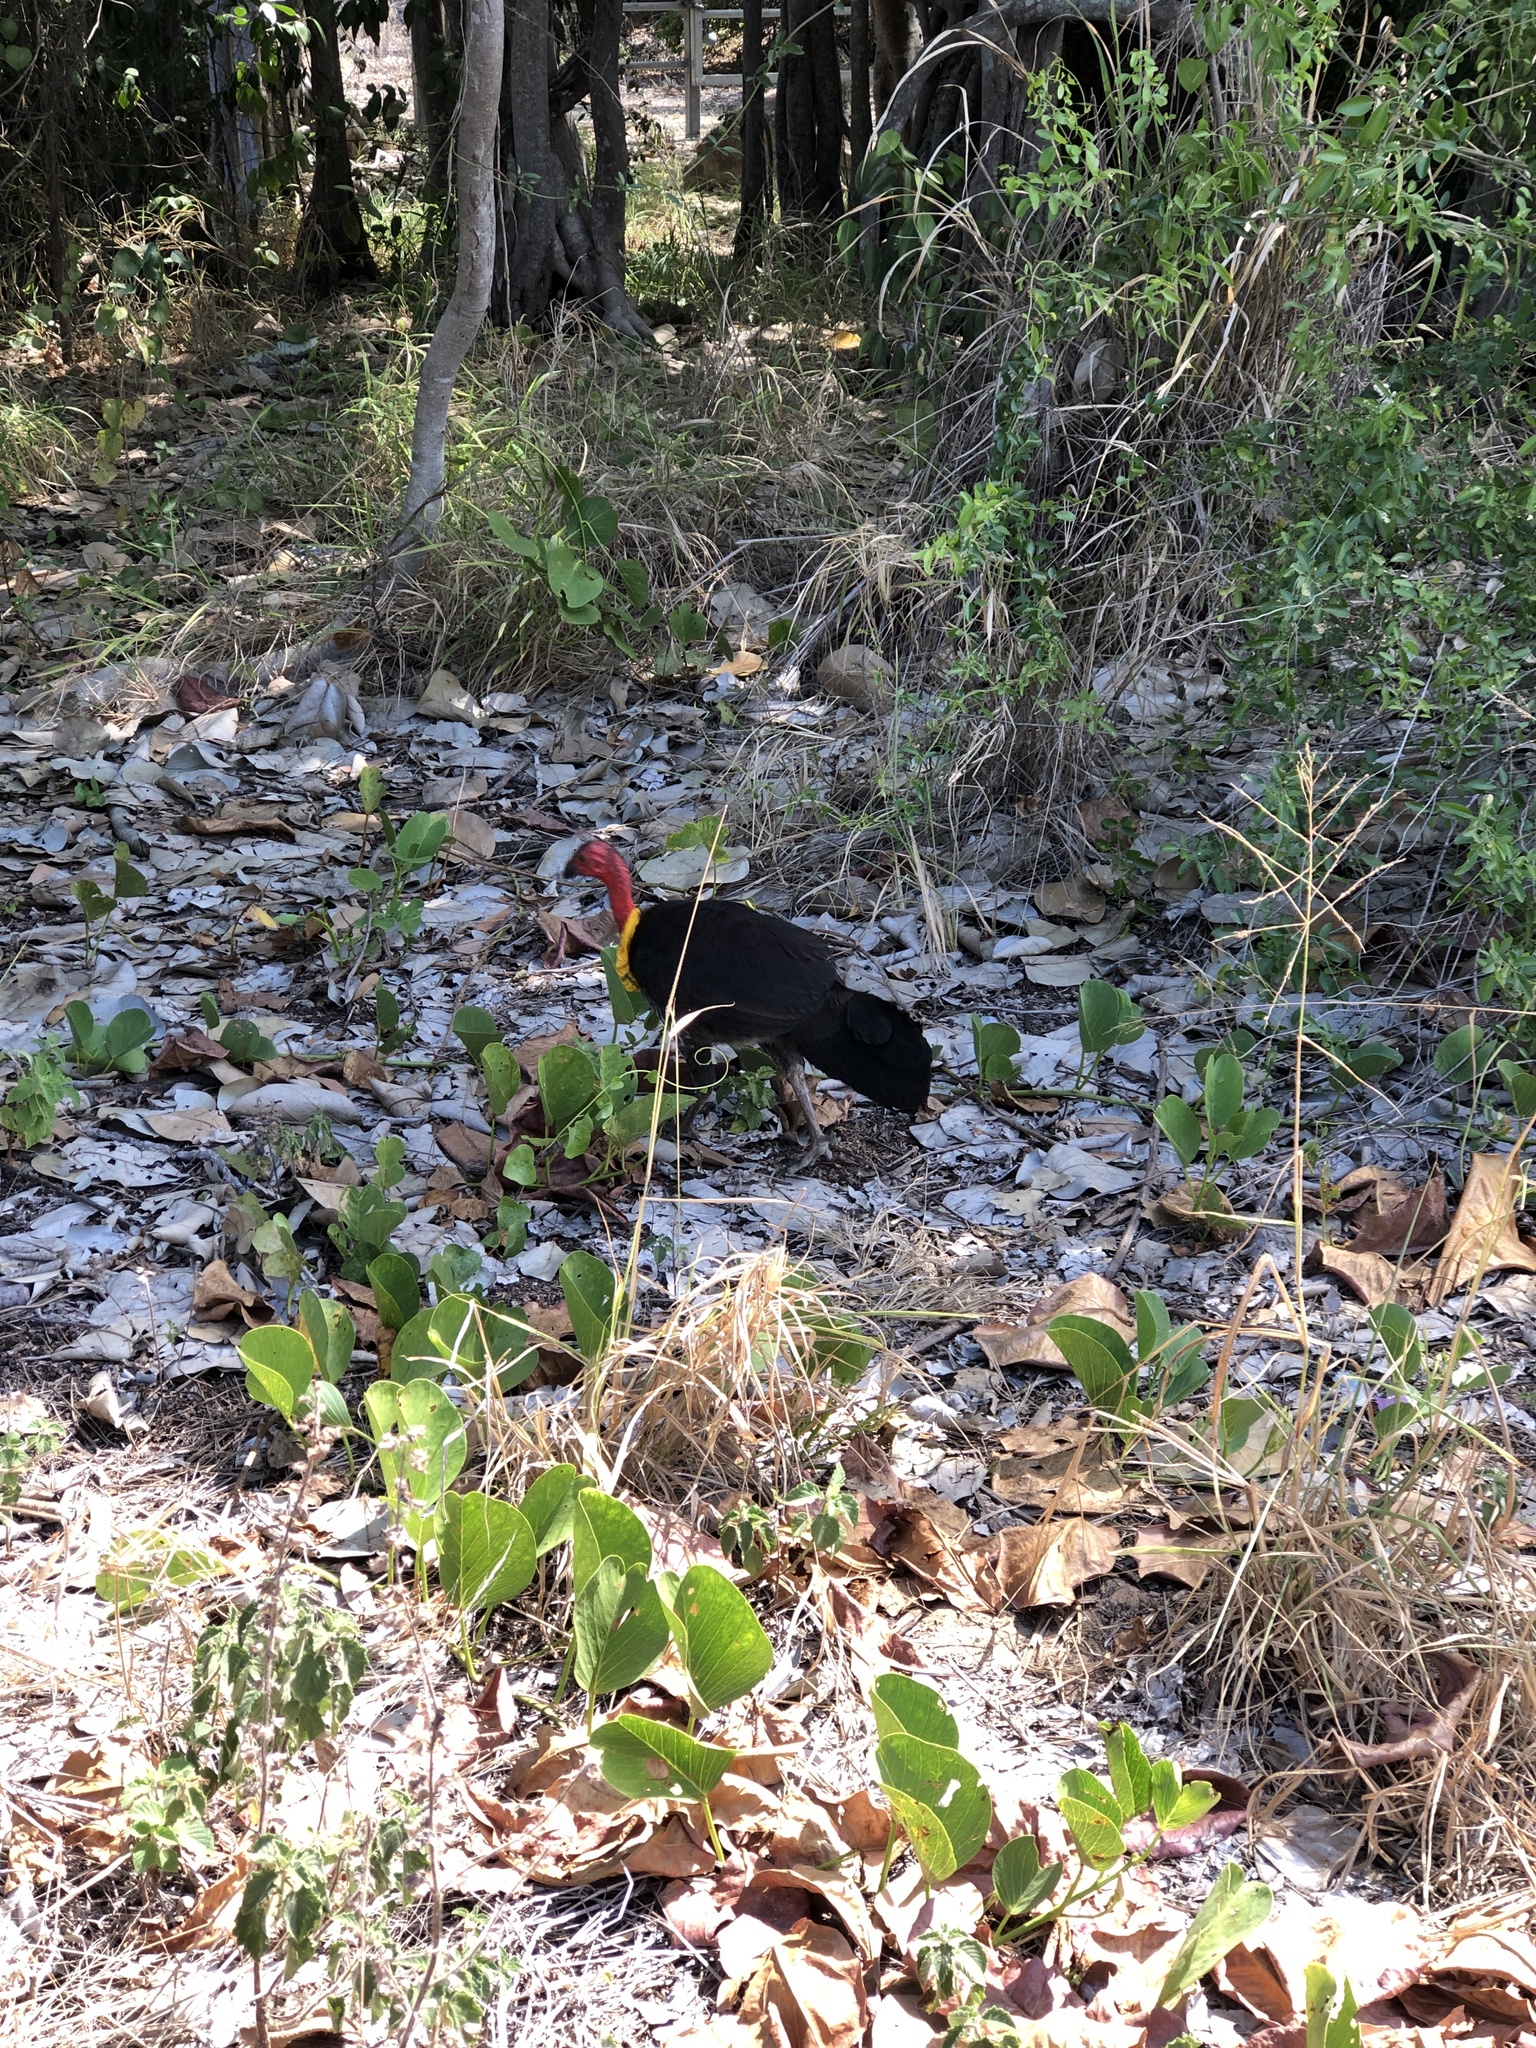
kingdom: Animalia
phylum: Chordata
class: Aves
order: Galliformes
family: Megapodiidae
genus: Alectura
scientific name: Alectura lathami
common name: Australian brushturkey
